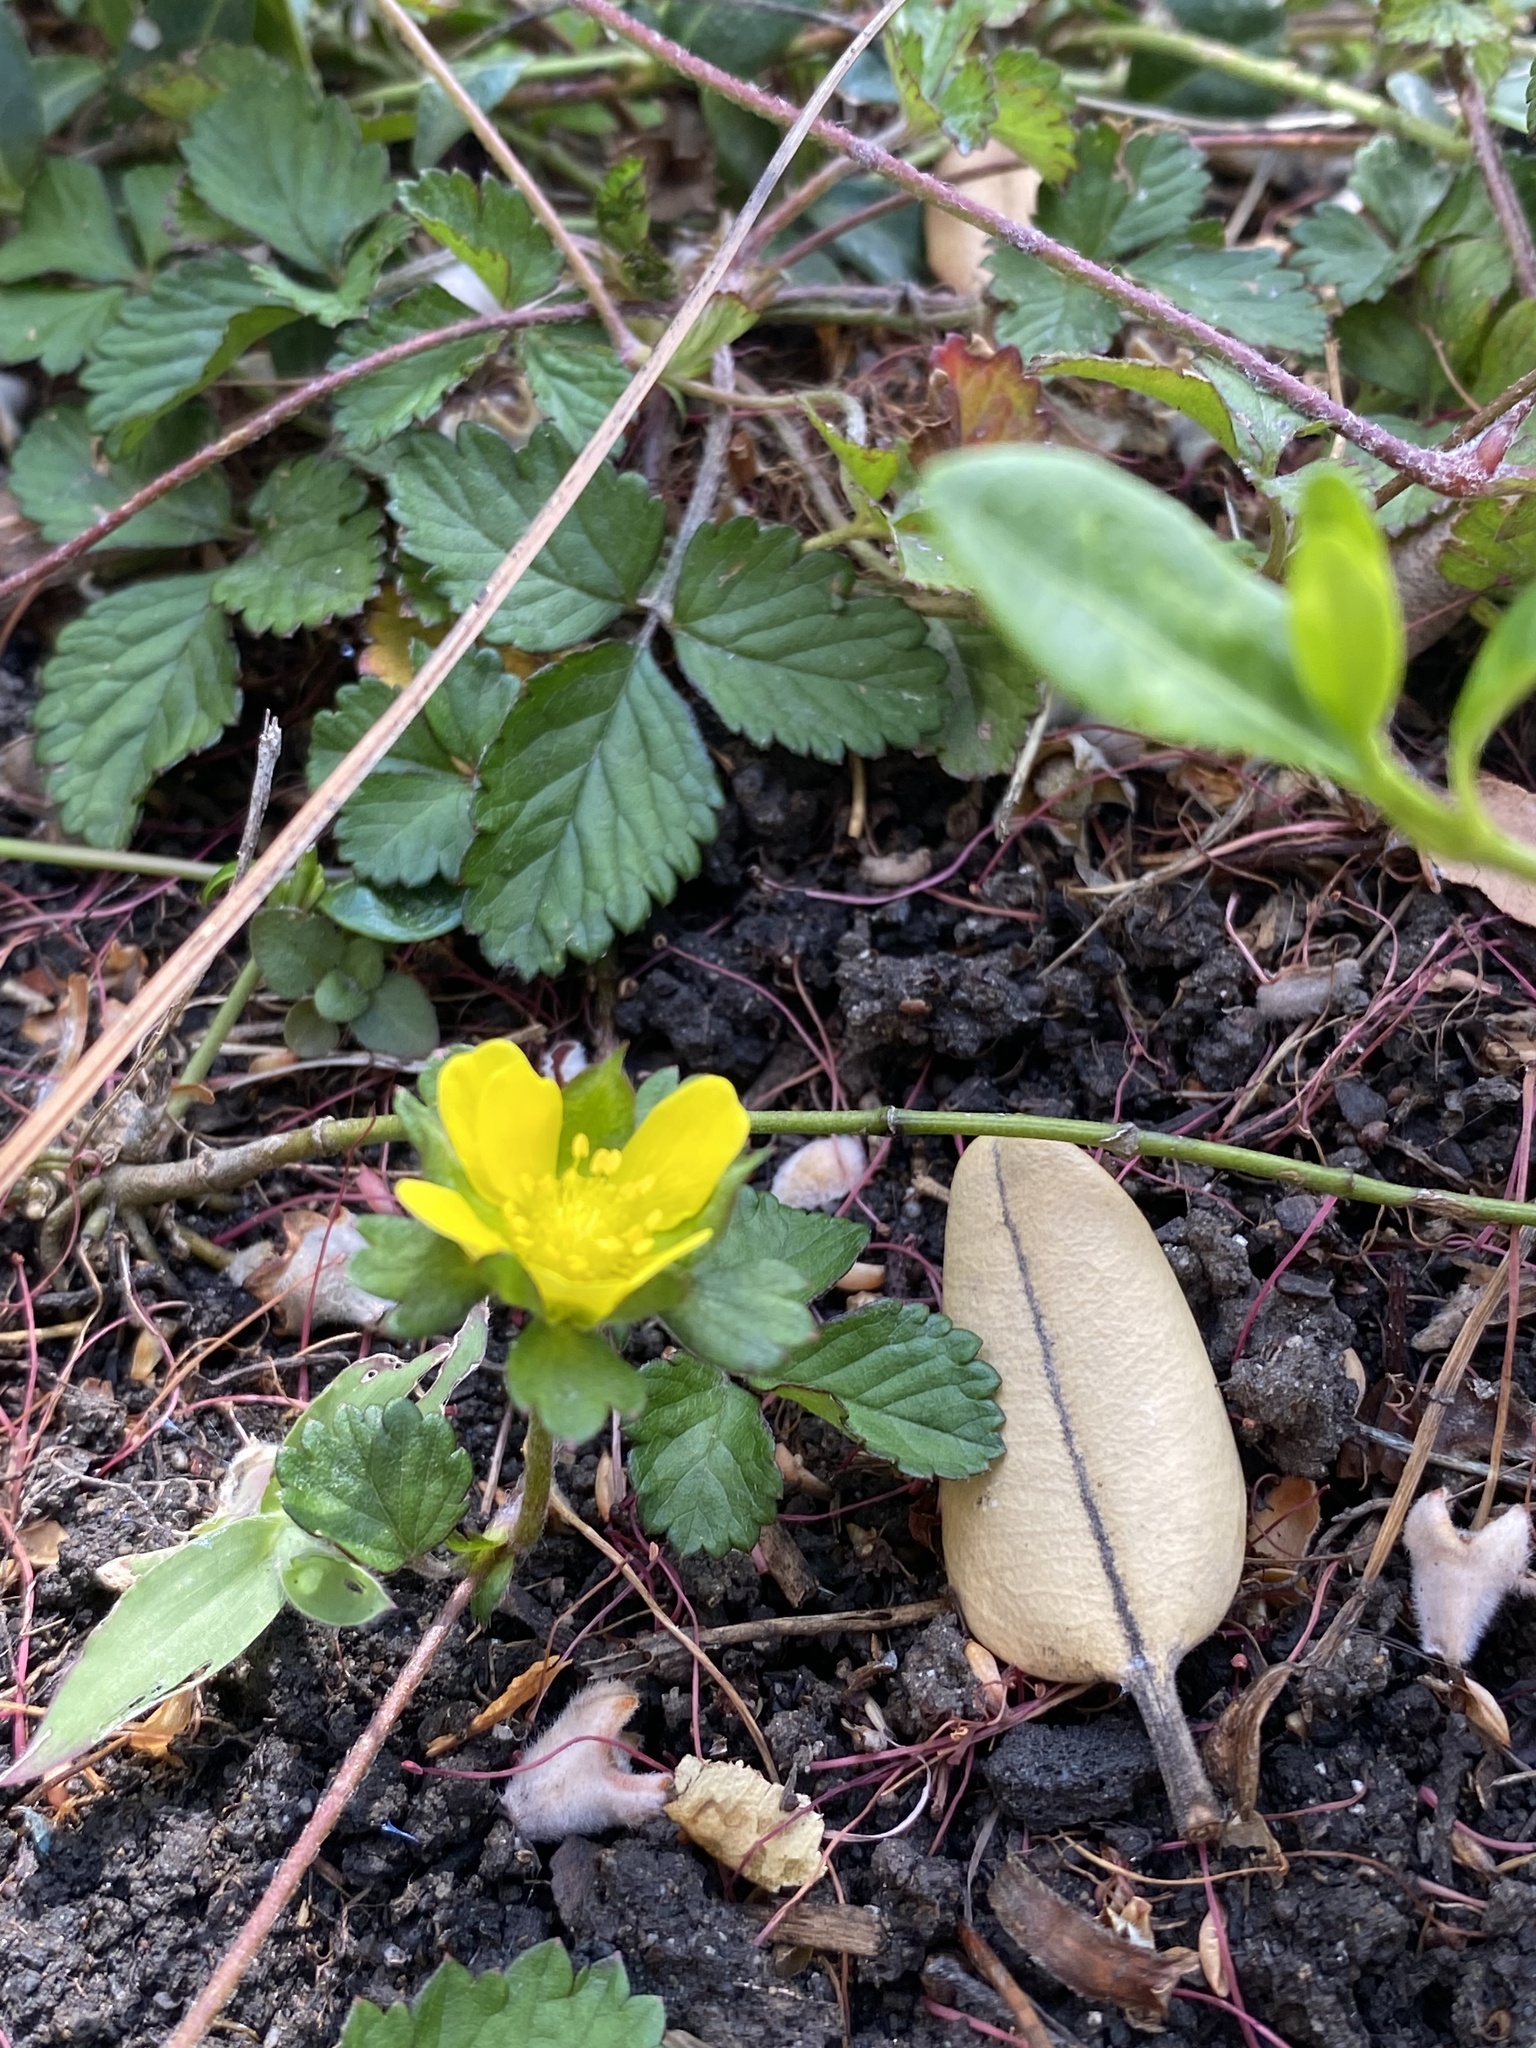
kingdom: Plantae
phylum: Tracheophyta
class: Magnoliopsida
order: Rosales
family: Rosaceae
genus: Potentilla
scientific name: Potentilla indica
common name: Yellow-flowered strawberry
